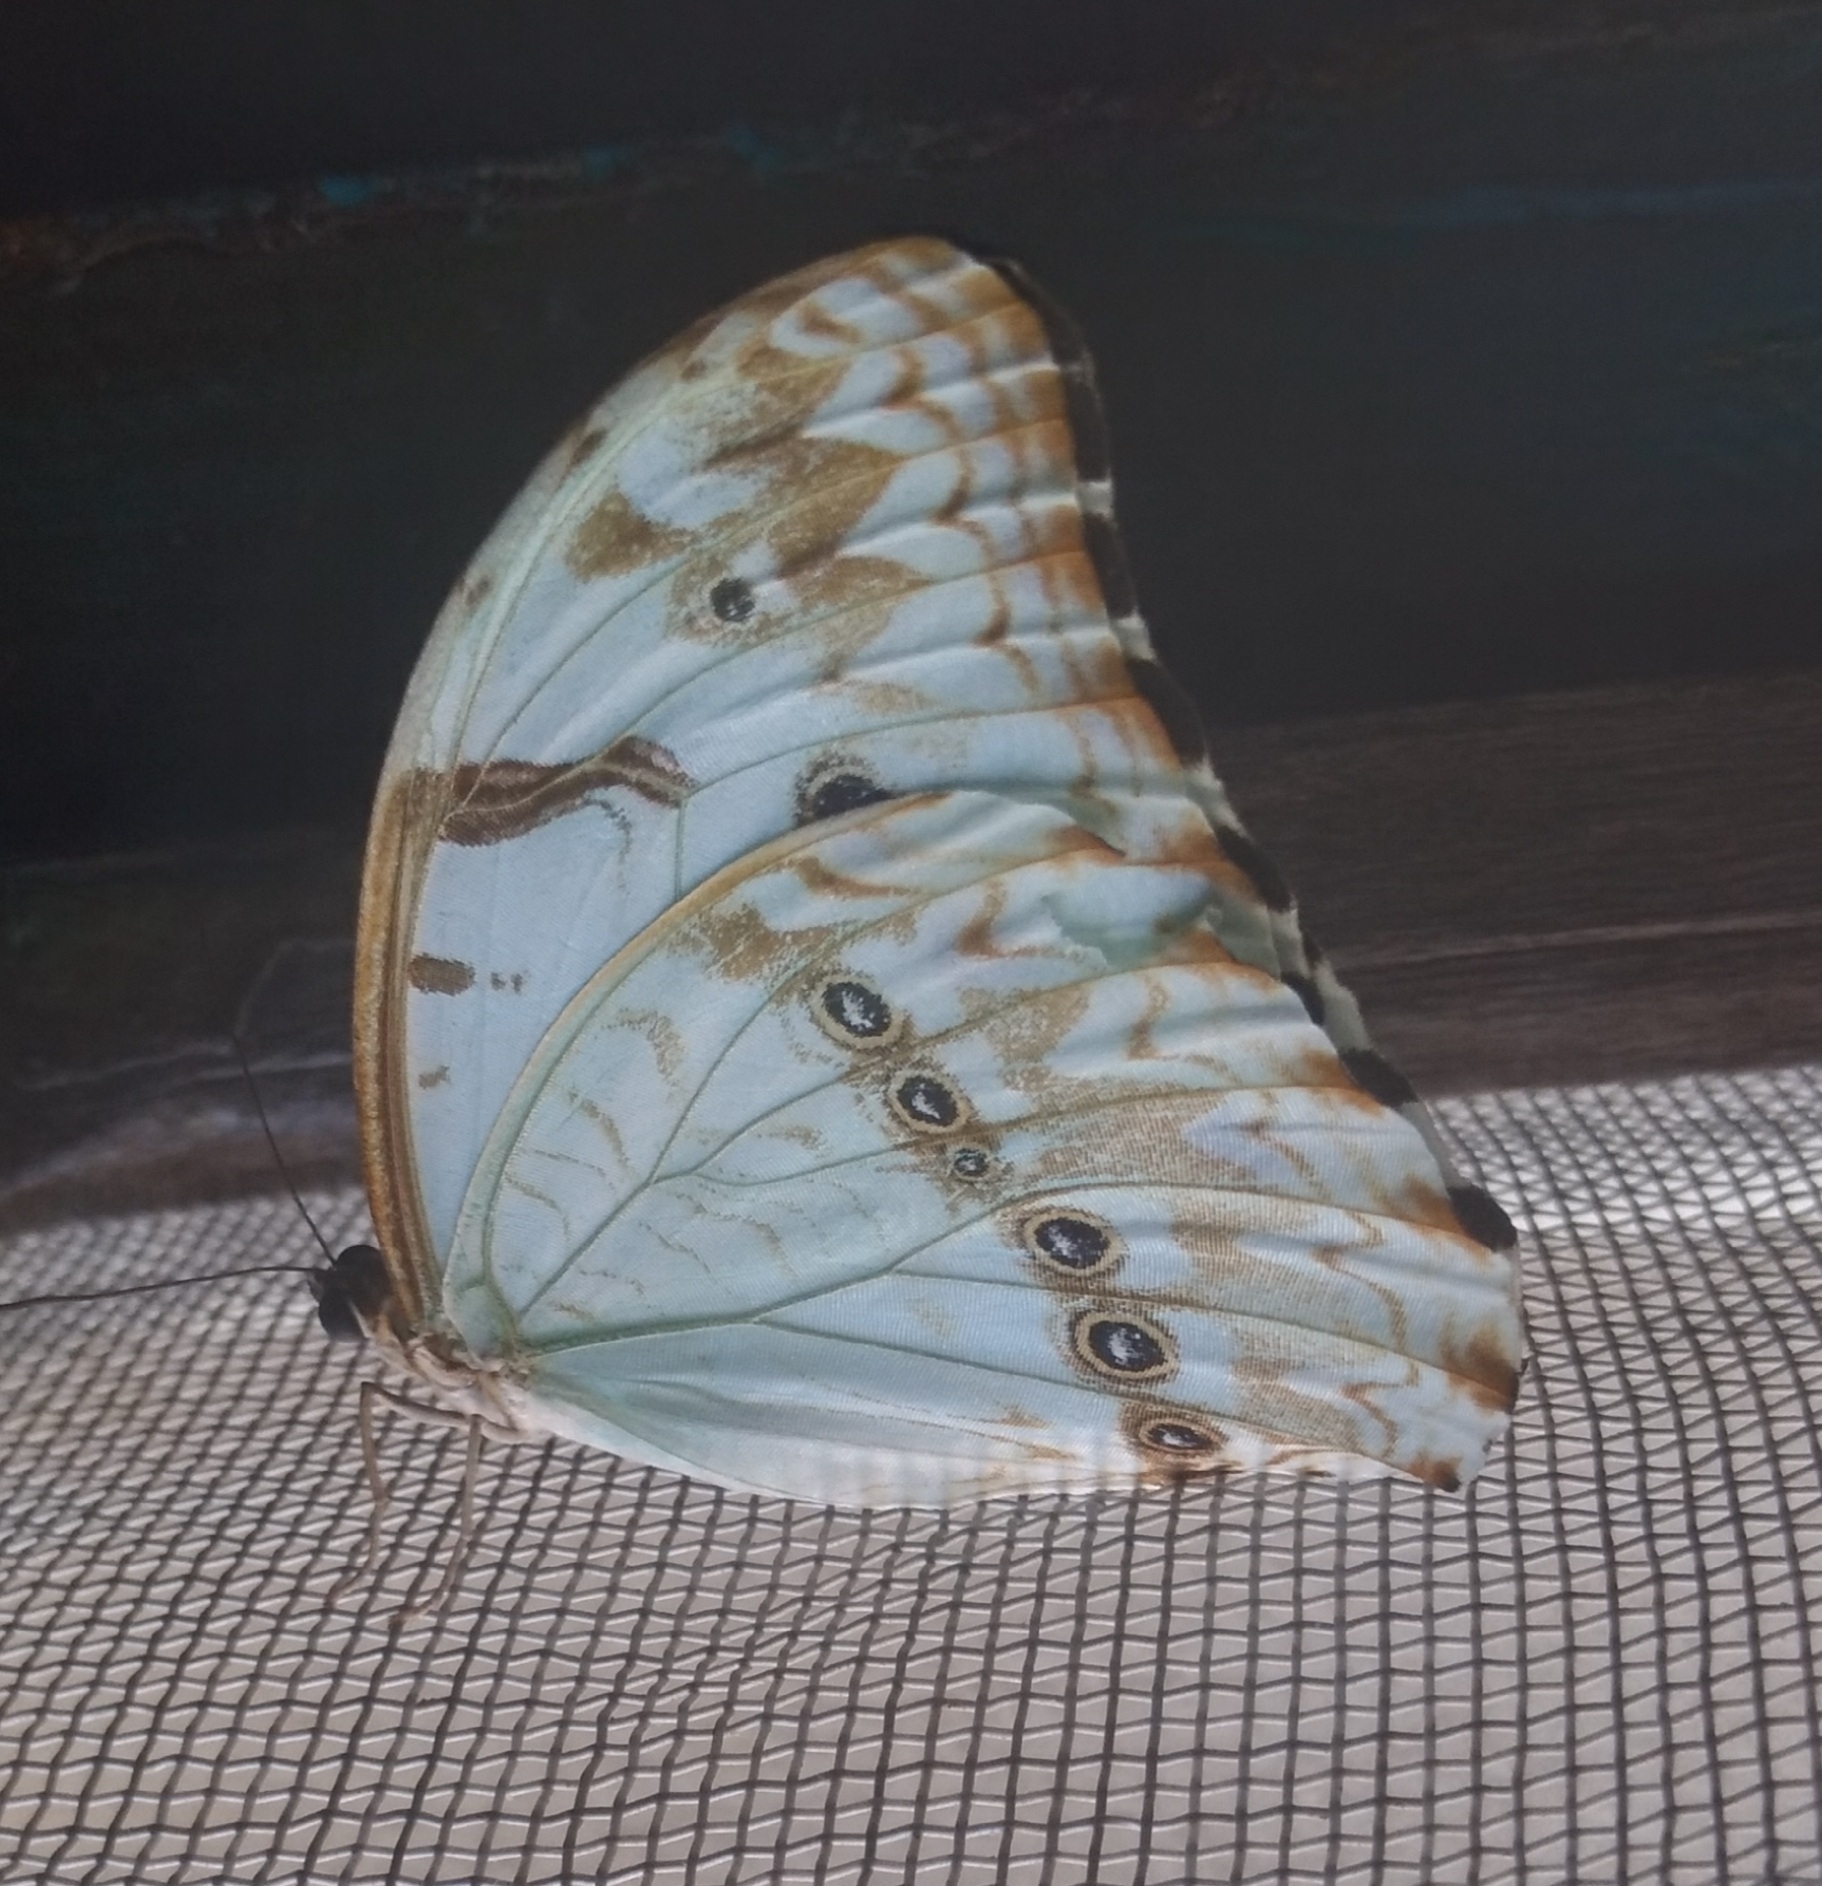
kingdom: Animalia
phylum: Arthropoda
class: Insecta
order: Lepidoptera
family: Nymphalidae
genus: Morpho
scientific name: Morpho epistrophus
